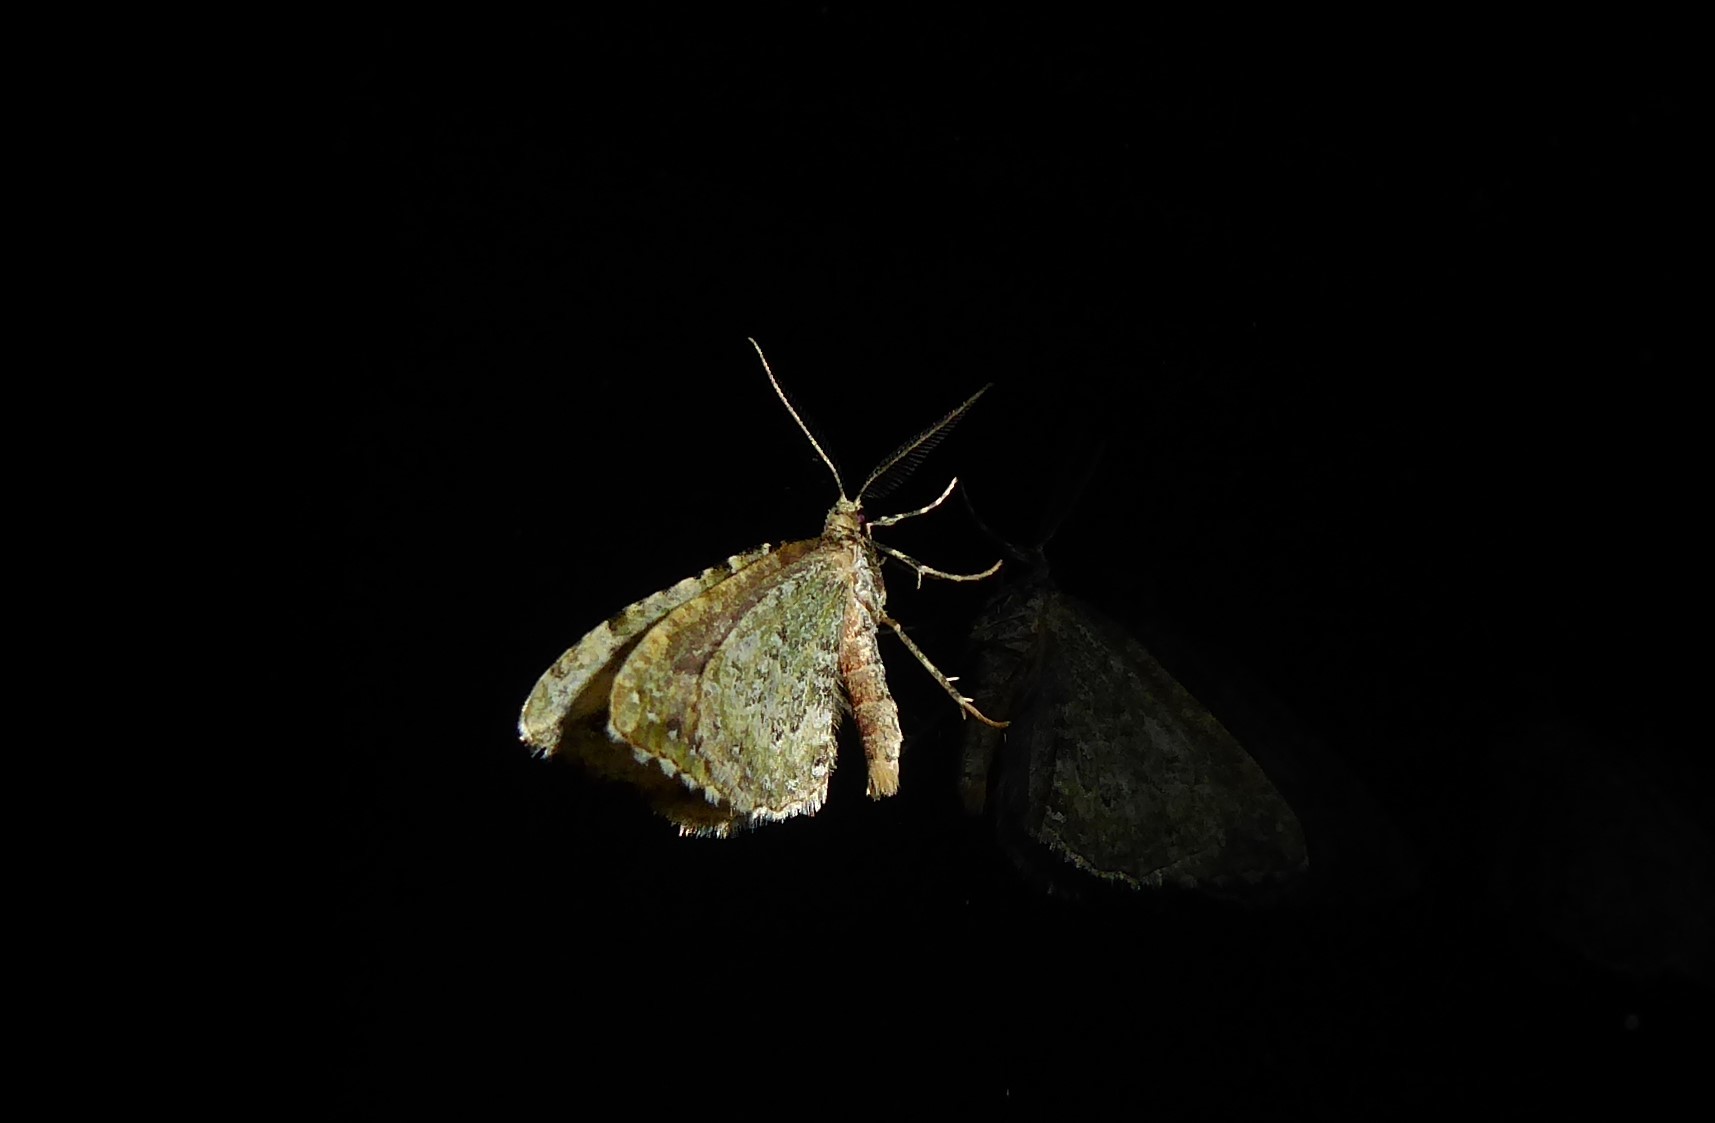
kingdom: Animalia
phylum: Arthropoda
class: Insecta
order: Lepidoptera
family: Geometridae
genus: Asaphodes
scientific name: Asaphodes beata
